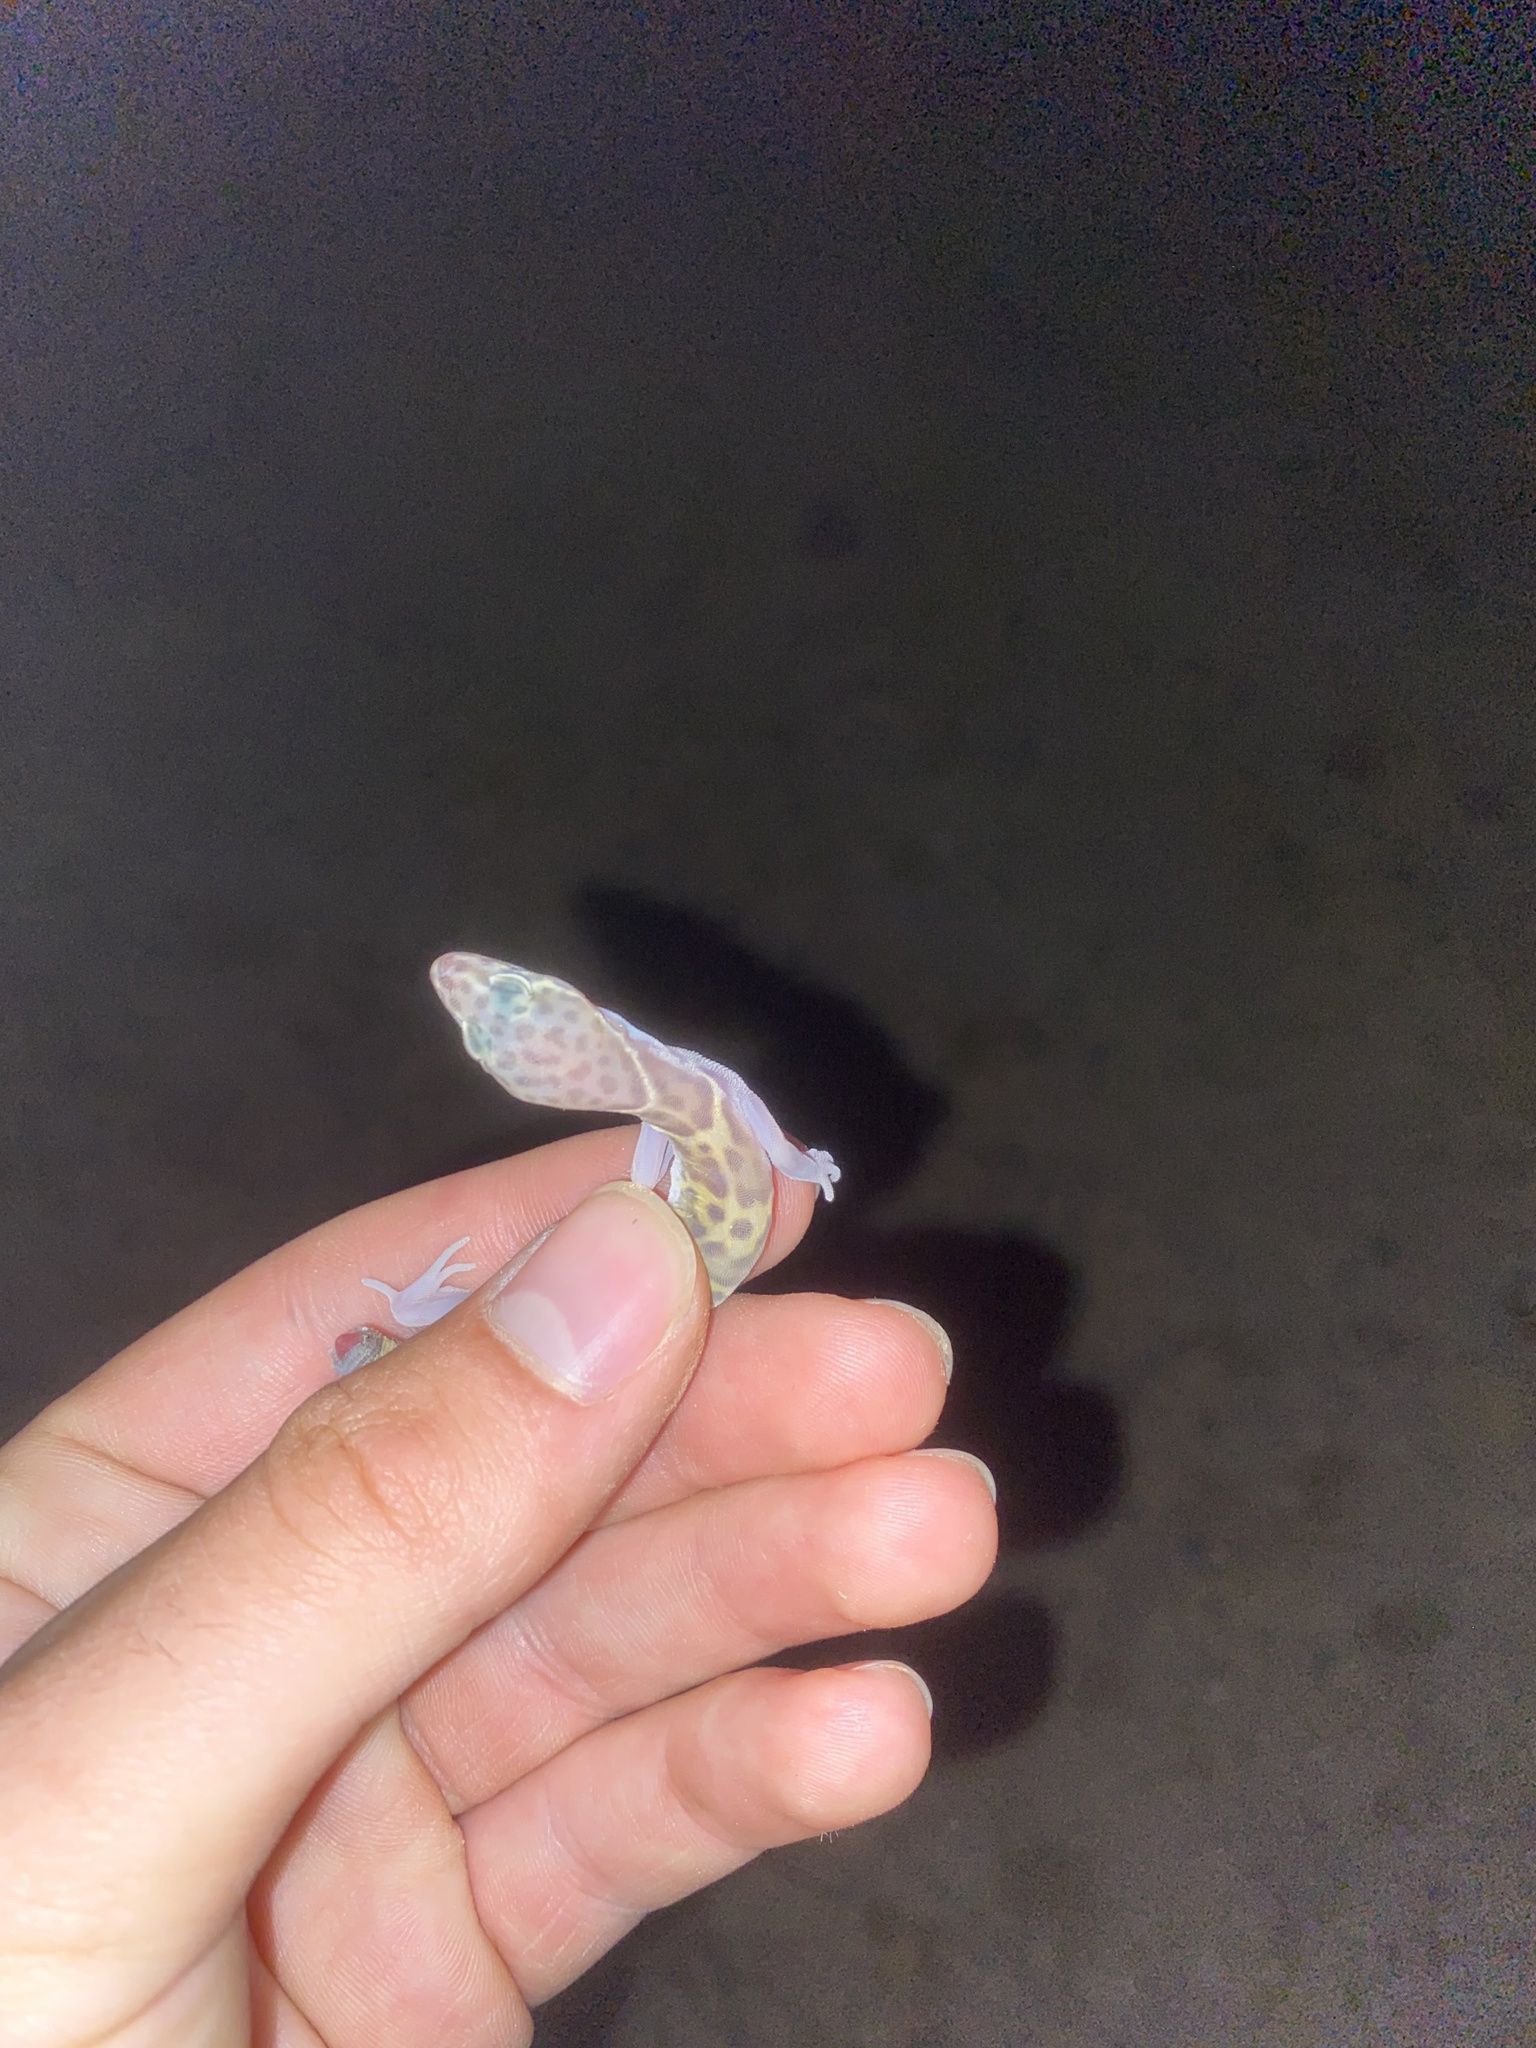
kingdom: Animalia
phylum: Chordata
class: Squamata
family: Eublepharidae
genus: Coleonyx
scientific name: Coleonyx variegatus
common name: Western banded gecko
